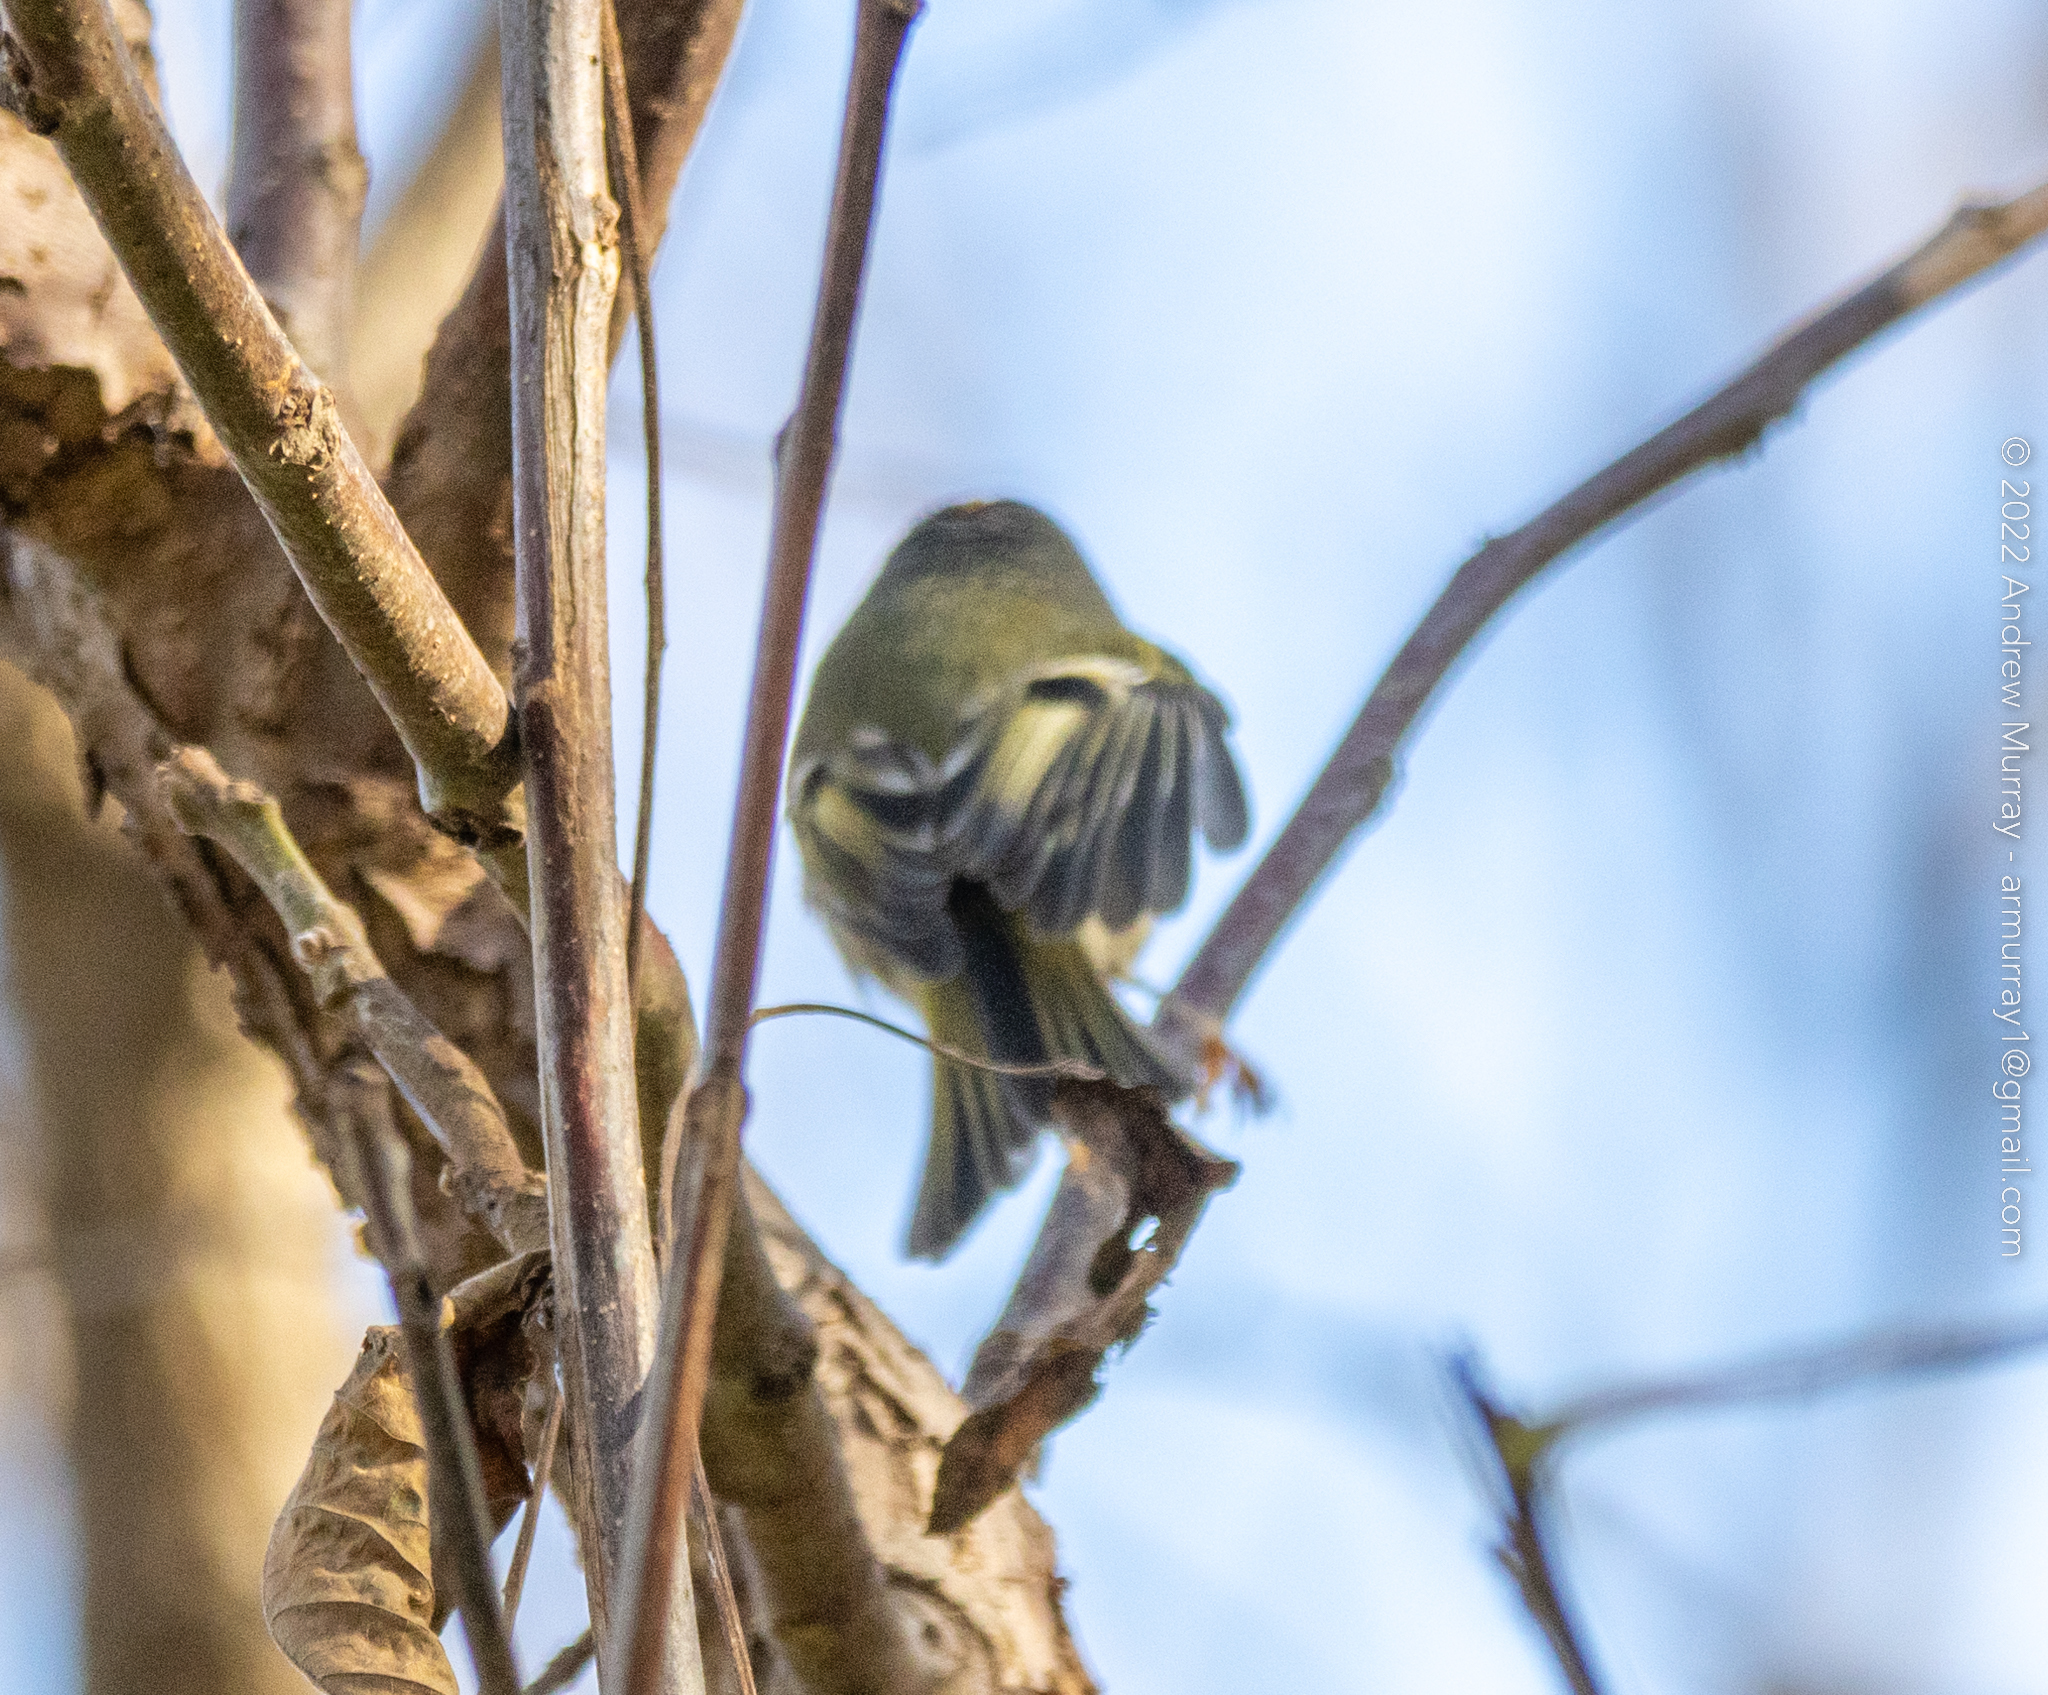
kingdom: Animalia
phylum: Chordata
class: Aves
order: Passeriformes
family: Regulidae
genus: Regulus
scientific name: Regulus satrapa
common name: Golden-crowned kinglet
